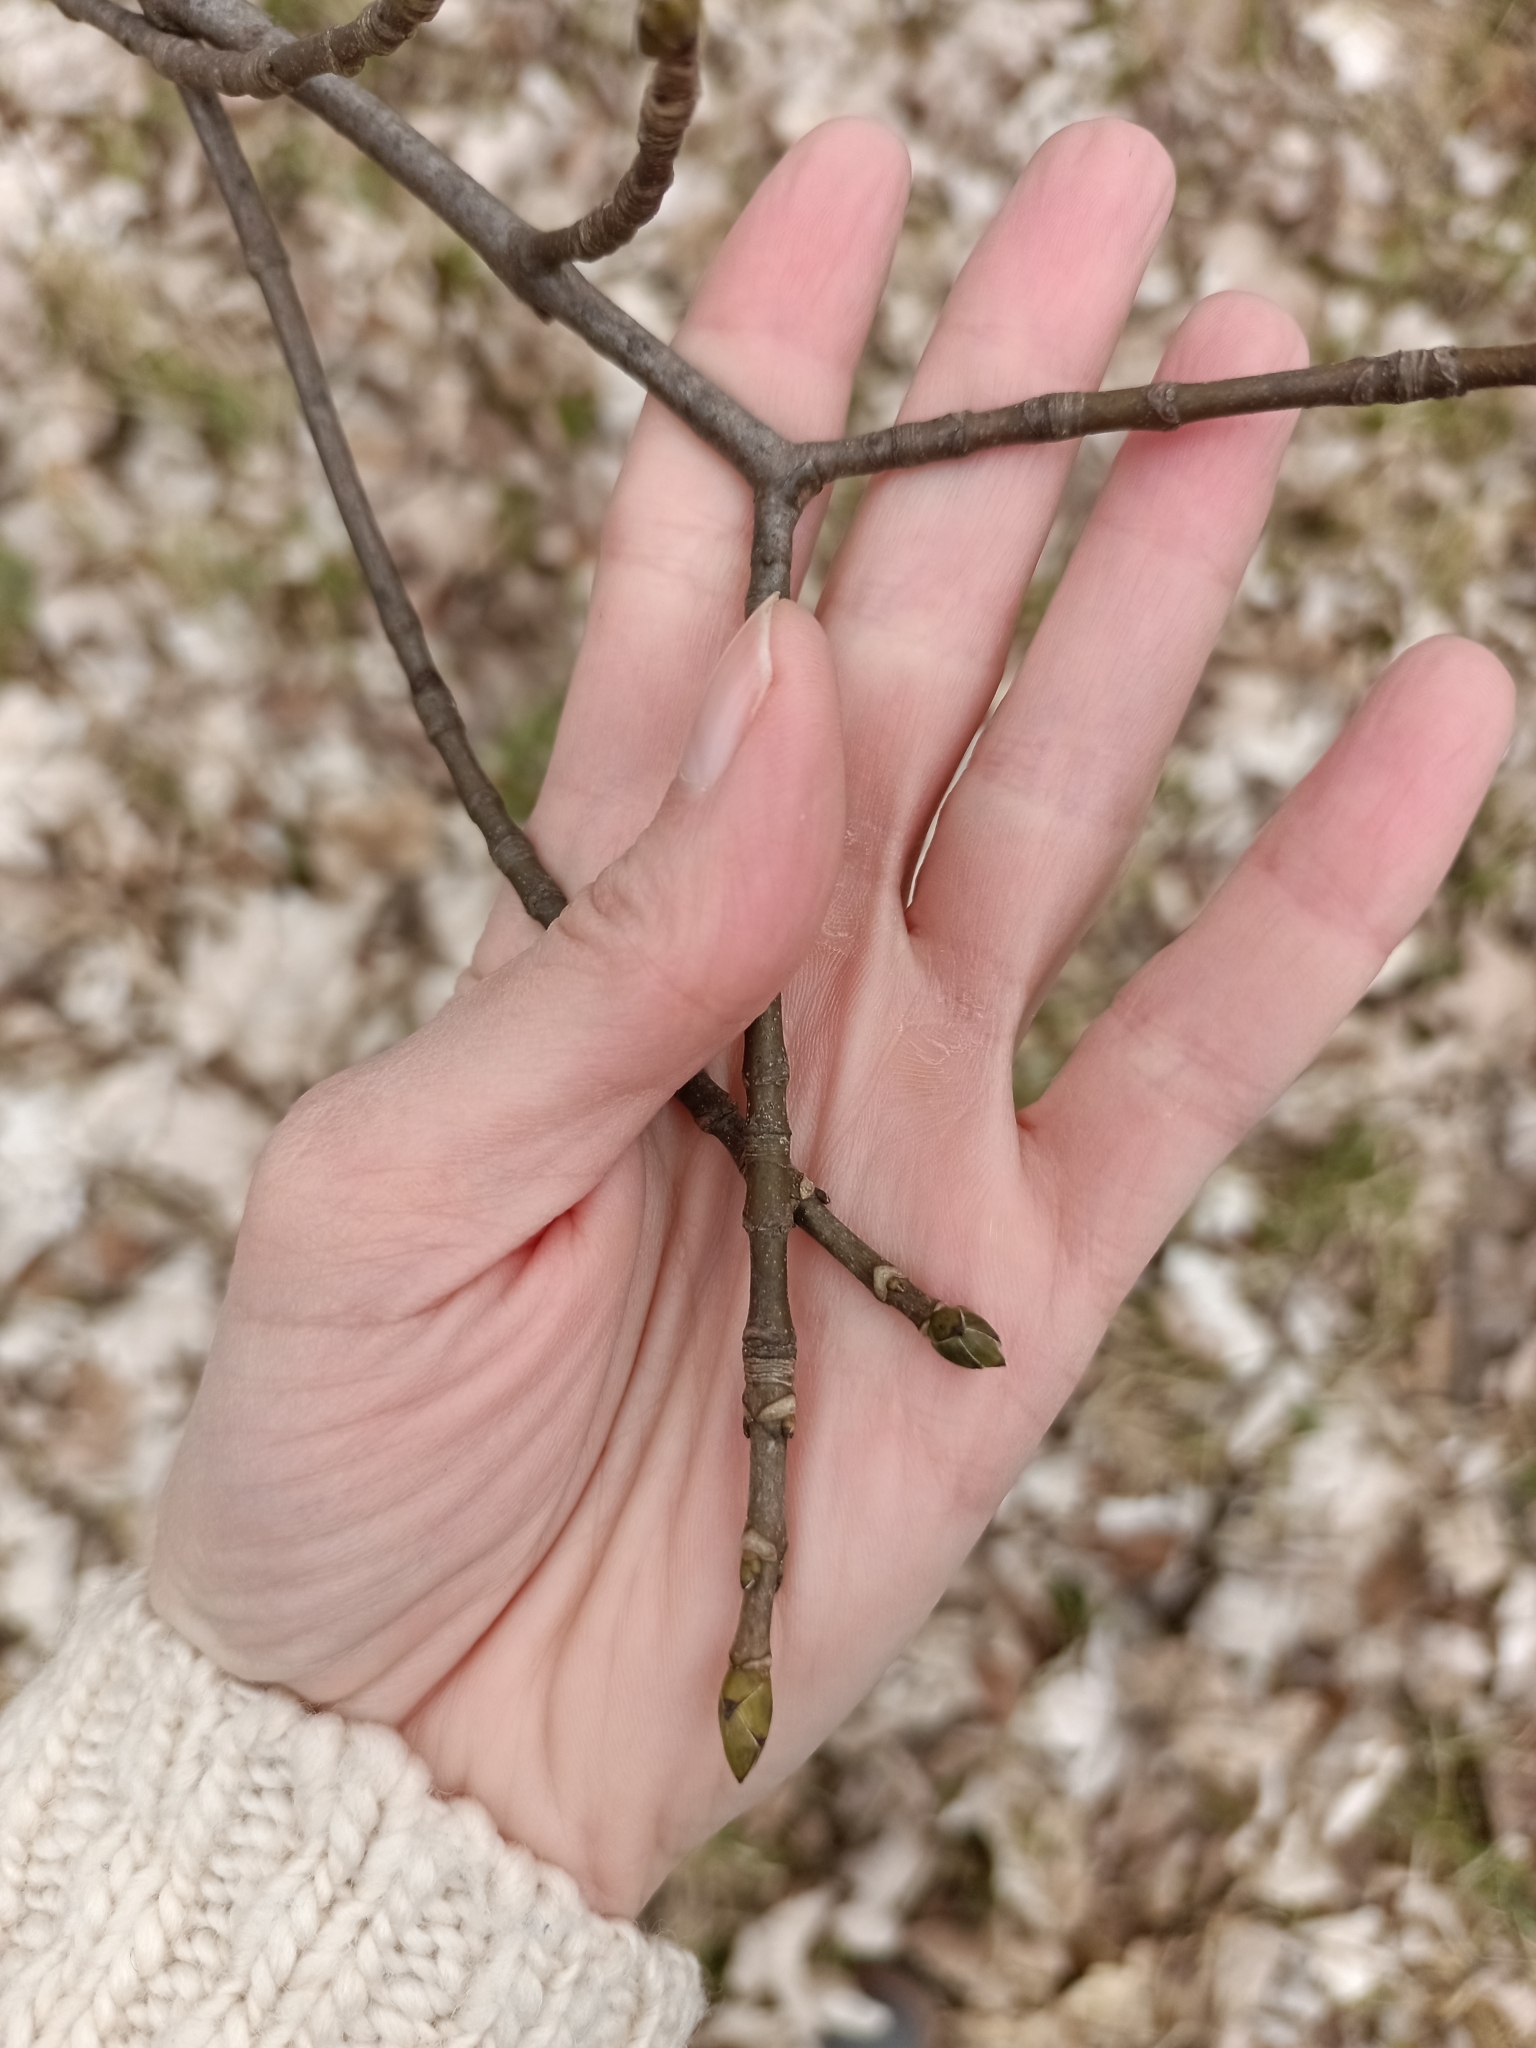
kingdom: Plantae
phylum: Tracheophyta
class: Magnoliopsida
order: Sapindales
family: Sapindaceae
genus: Acer
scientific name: Acer pseudoplatanus
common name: Sycamore
